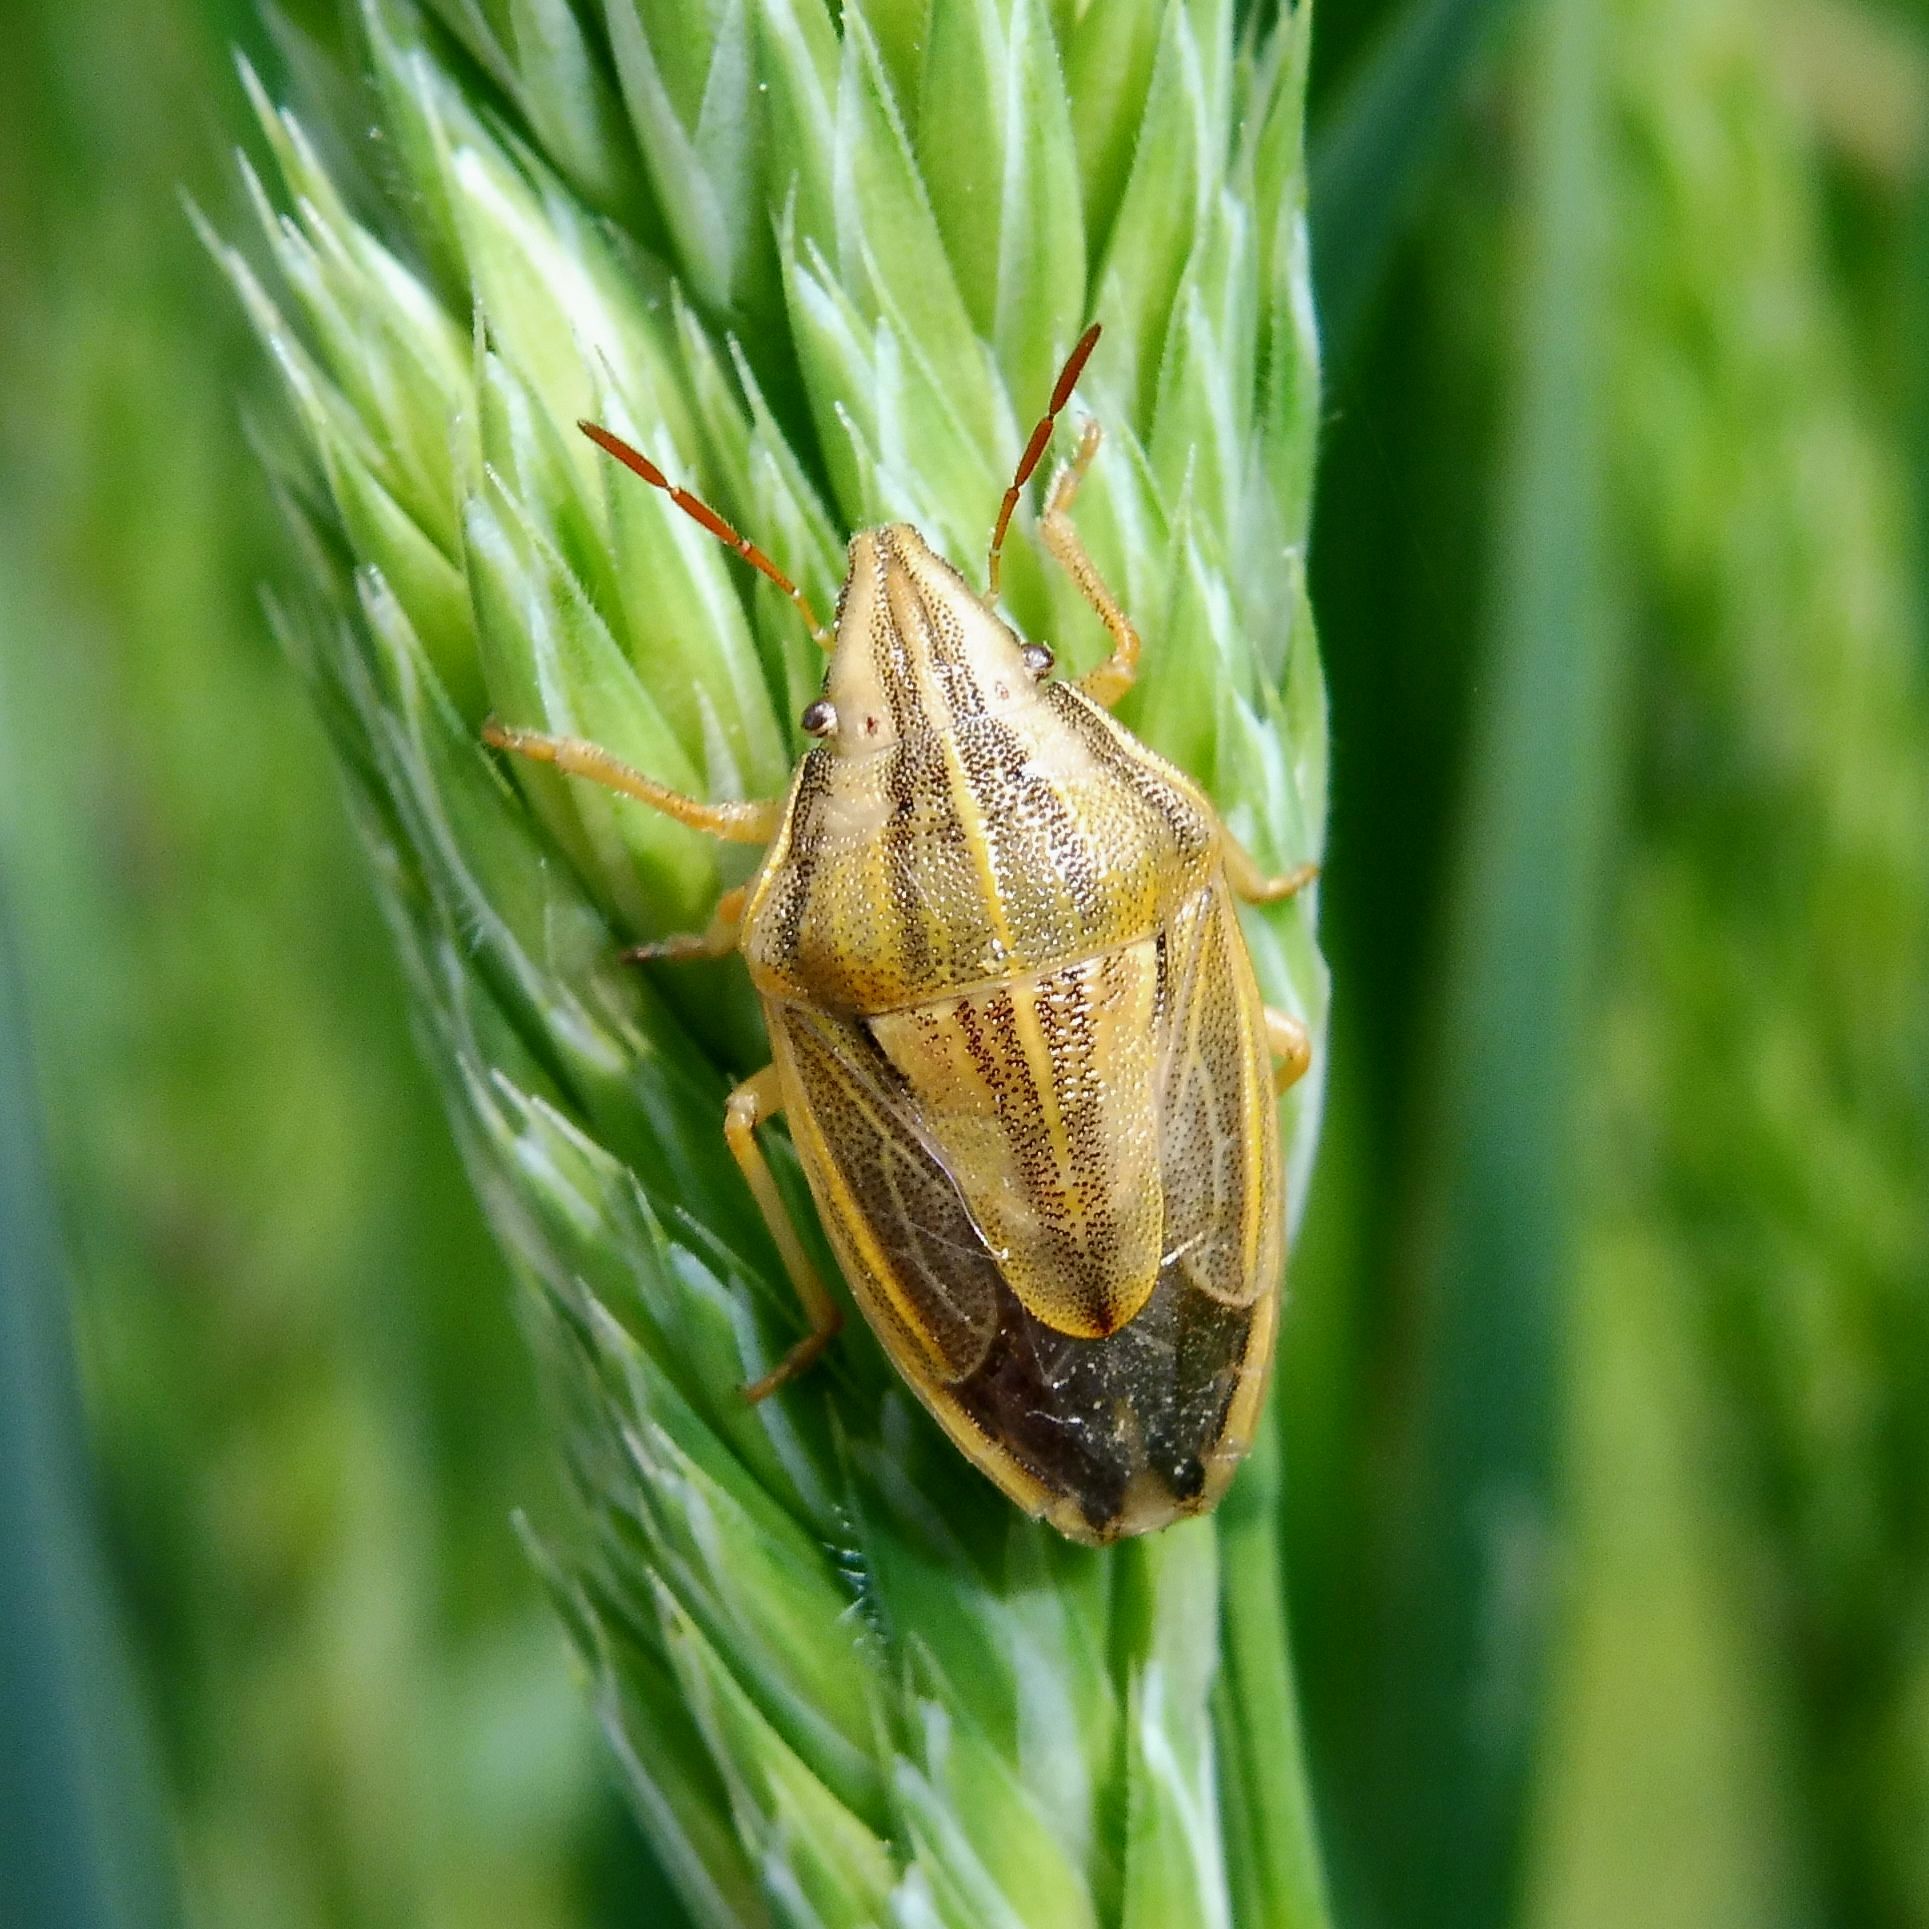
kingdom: Animalia
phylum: Arthropoda
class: Insecta
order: Hemiptera
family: Pentatomidae
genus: Aelia
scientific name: Aelia acuminata
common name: Bishop's mitre
